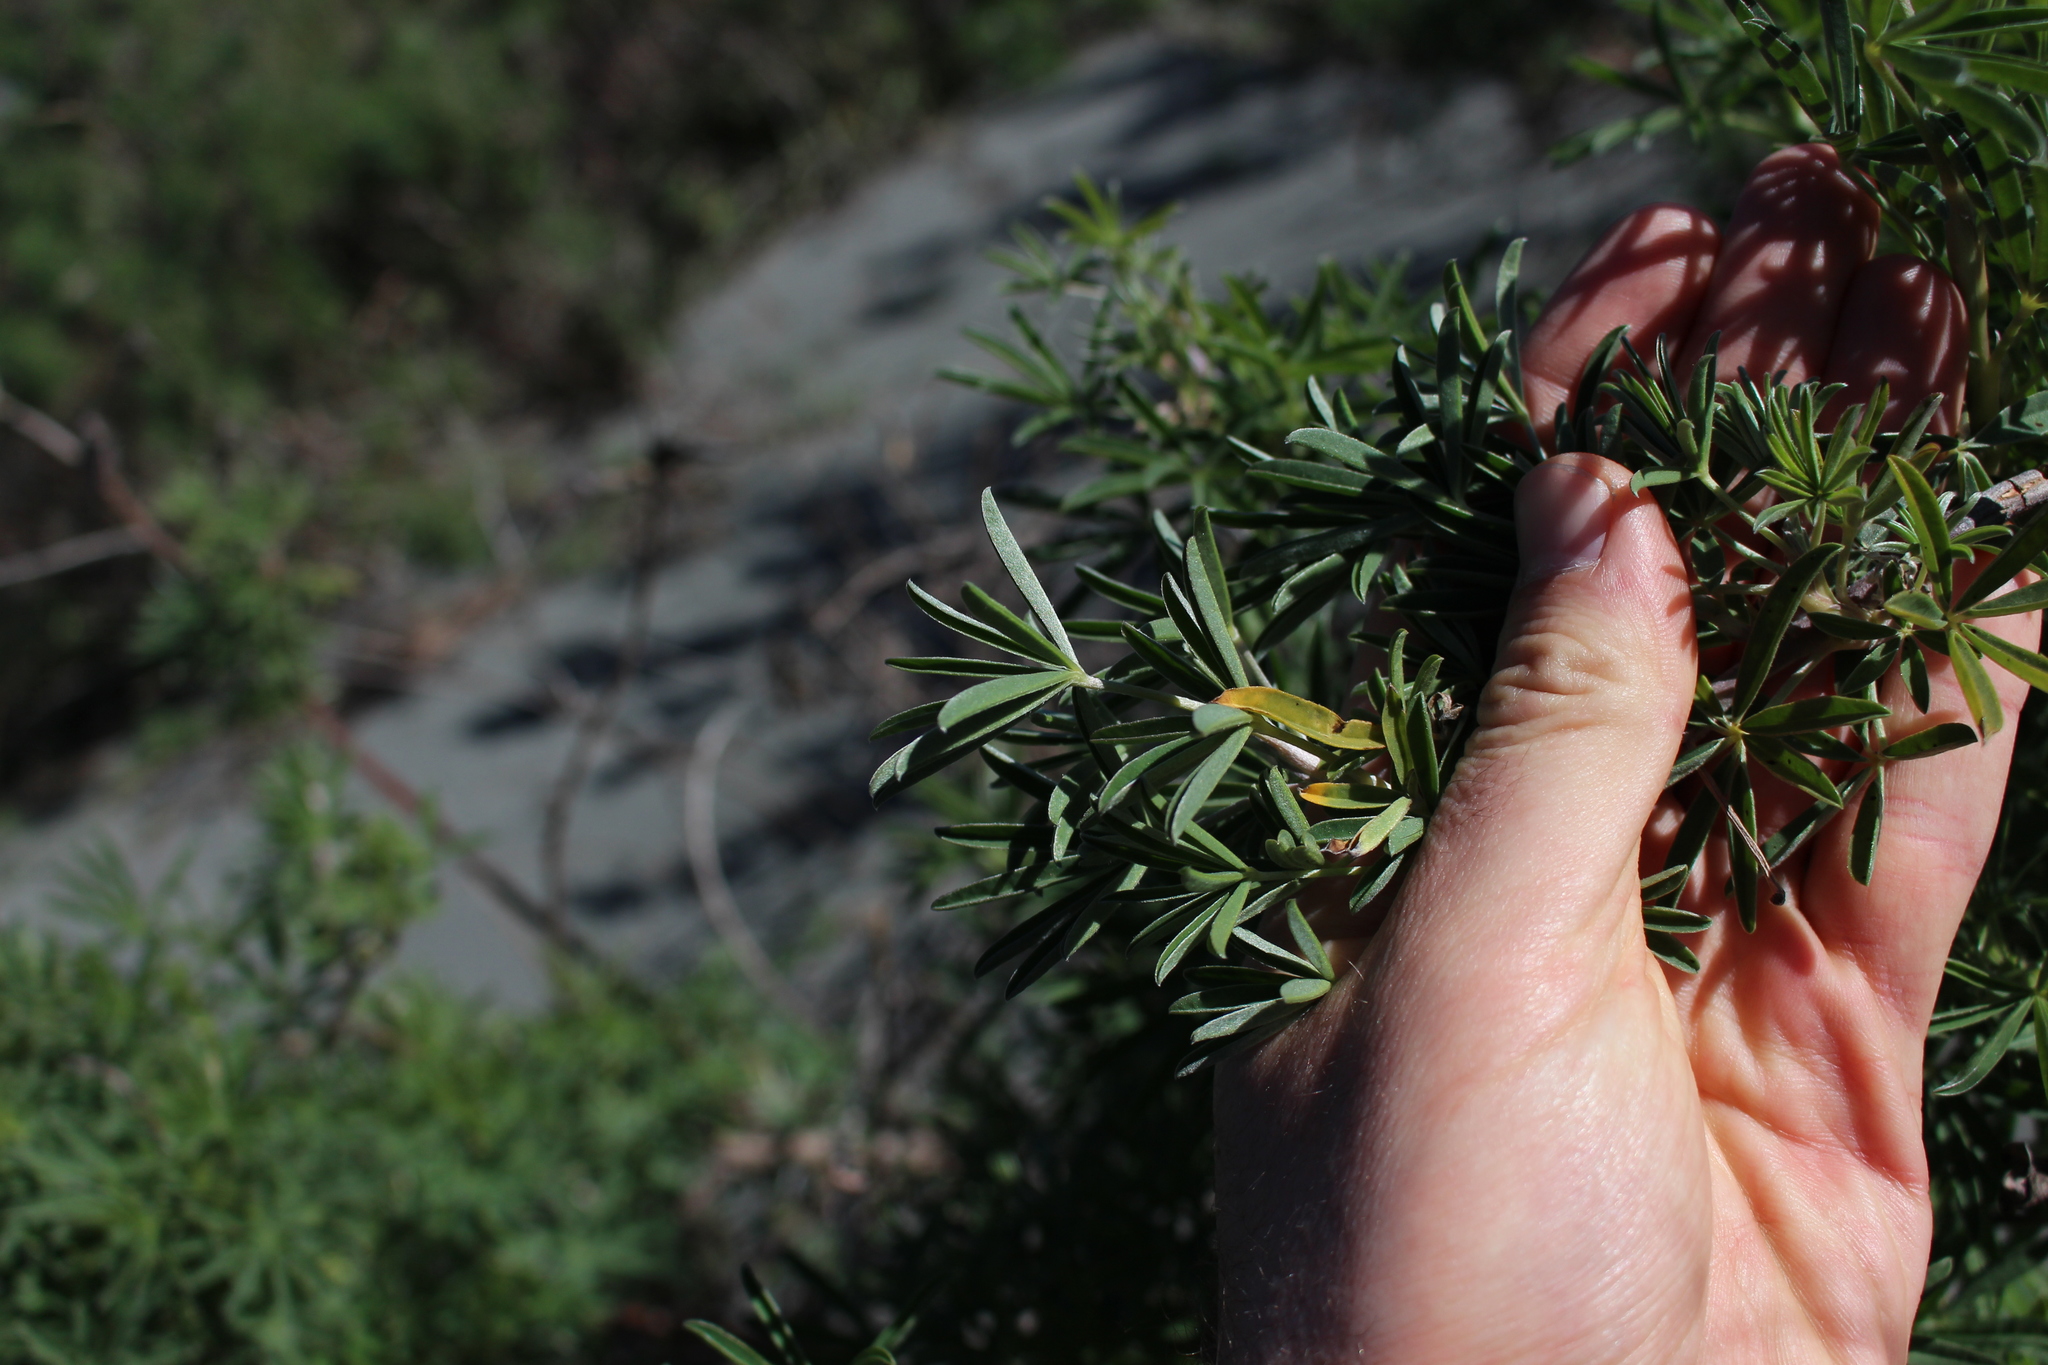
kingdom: Plantae
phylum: Tracheophyta
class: Magnoliopsida
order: Fabales
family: Fabaceae
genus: Lupinus
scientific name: Lupinus arboreus
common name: Yellow bush lupine
